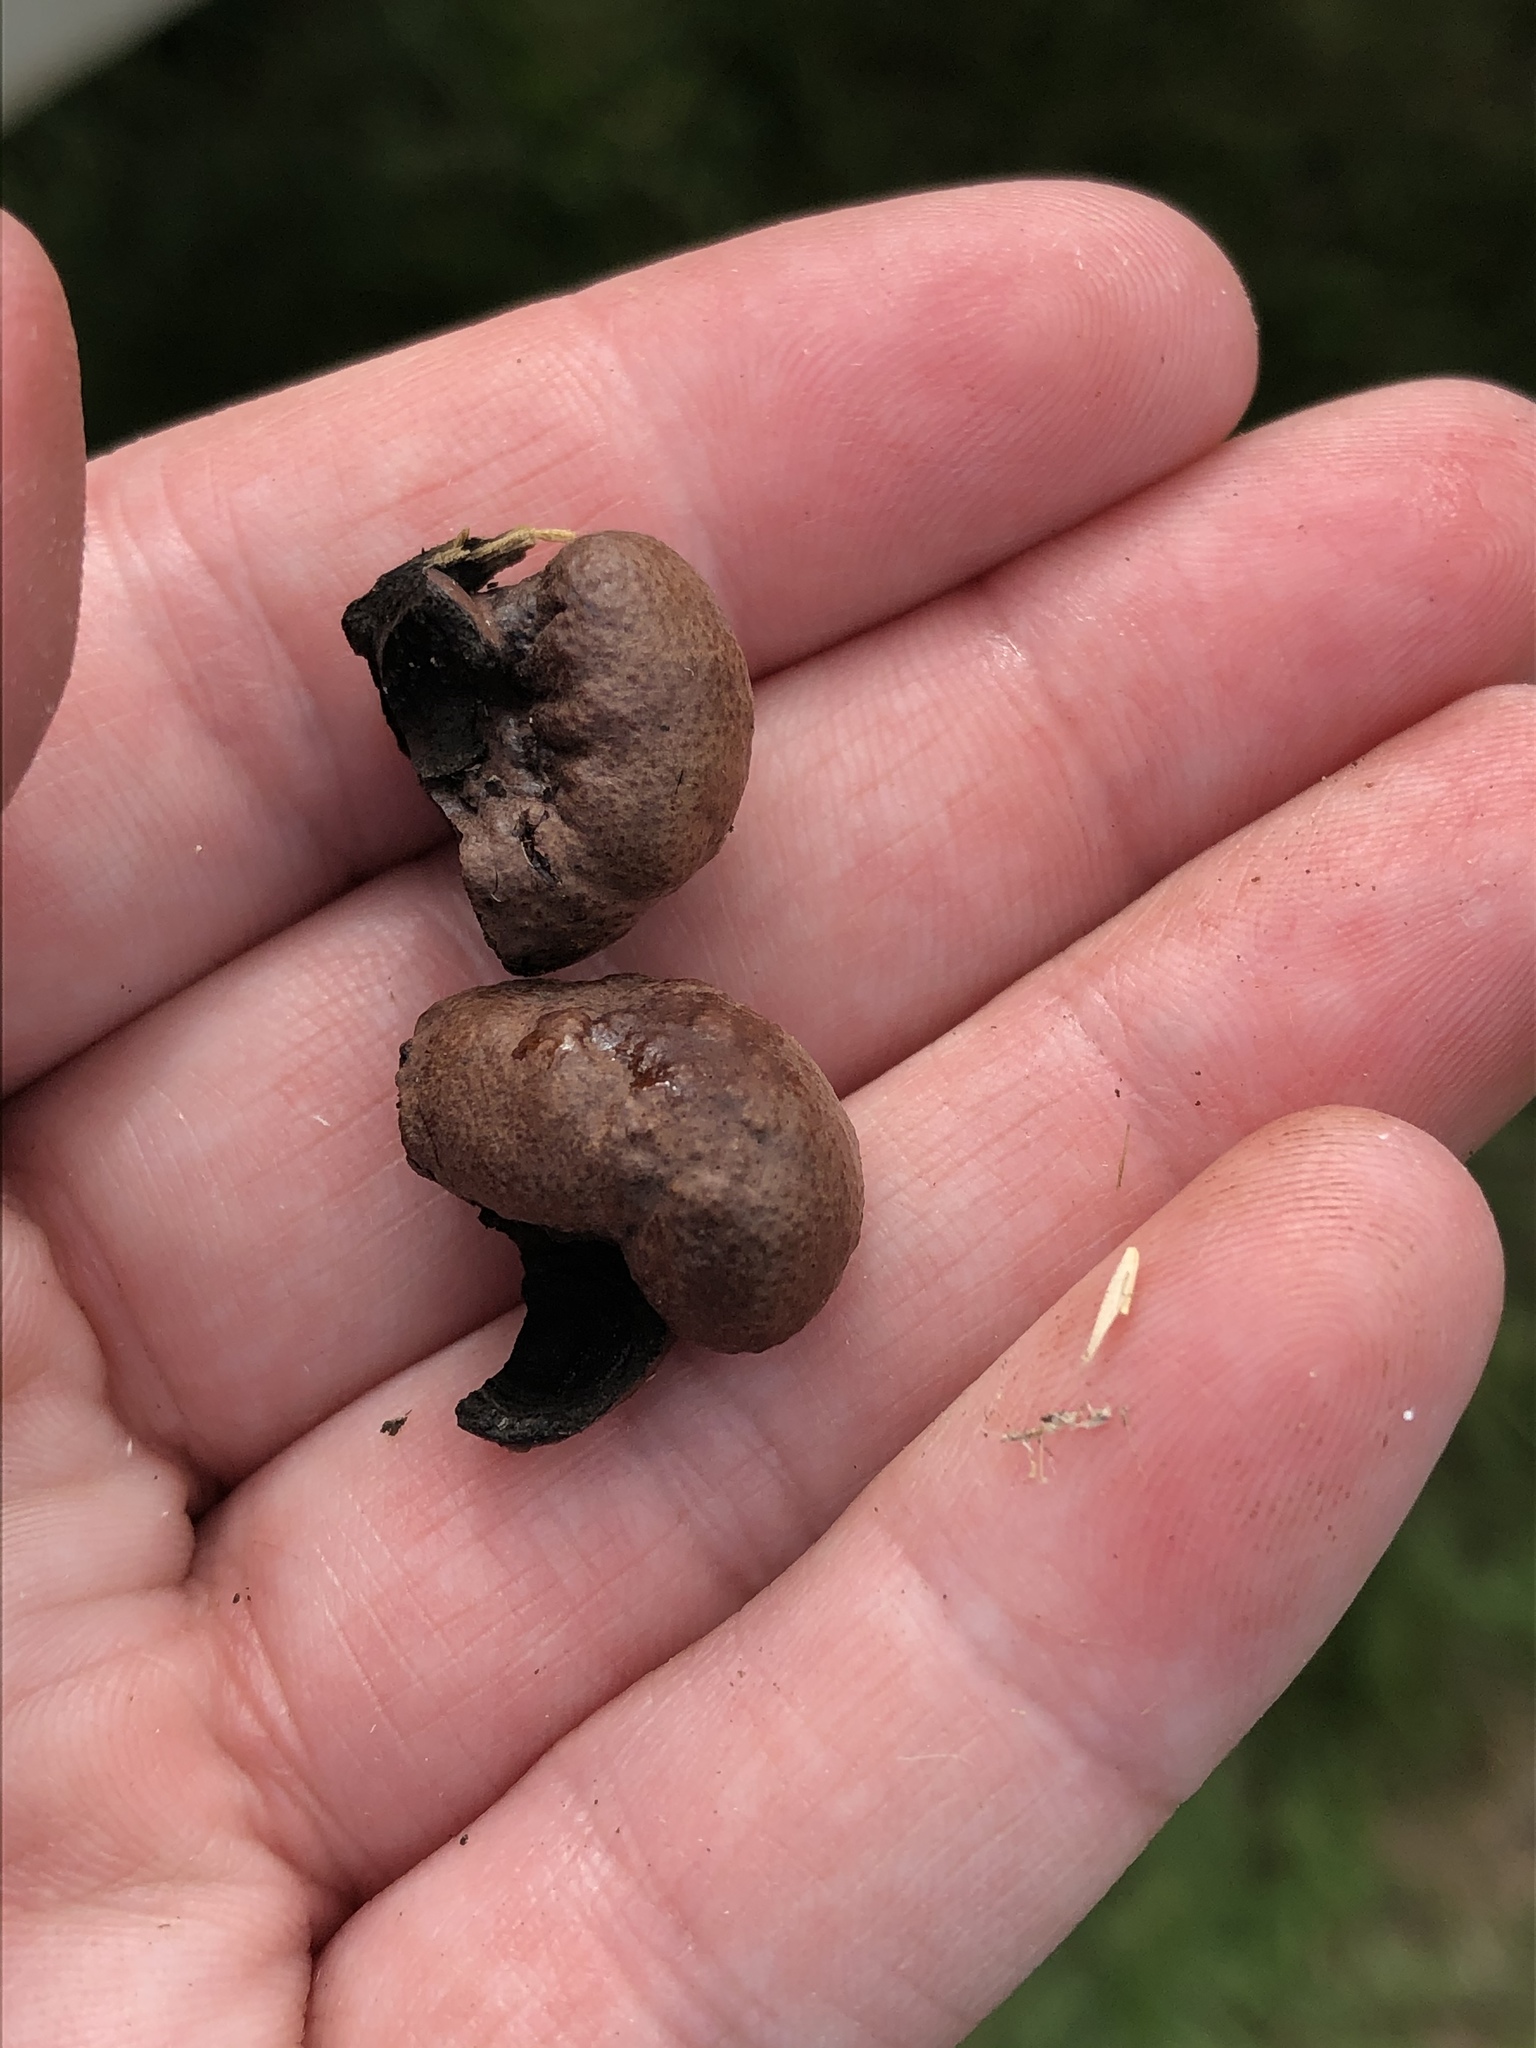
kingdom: Fungi
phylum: Ascomycota
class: Sordariomycetes
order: Xylariales
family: Hypoxylaceae
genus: Daldinia
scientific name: Daldinia childiae
